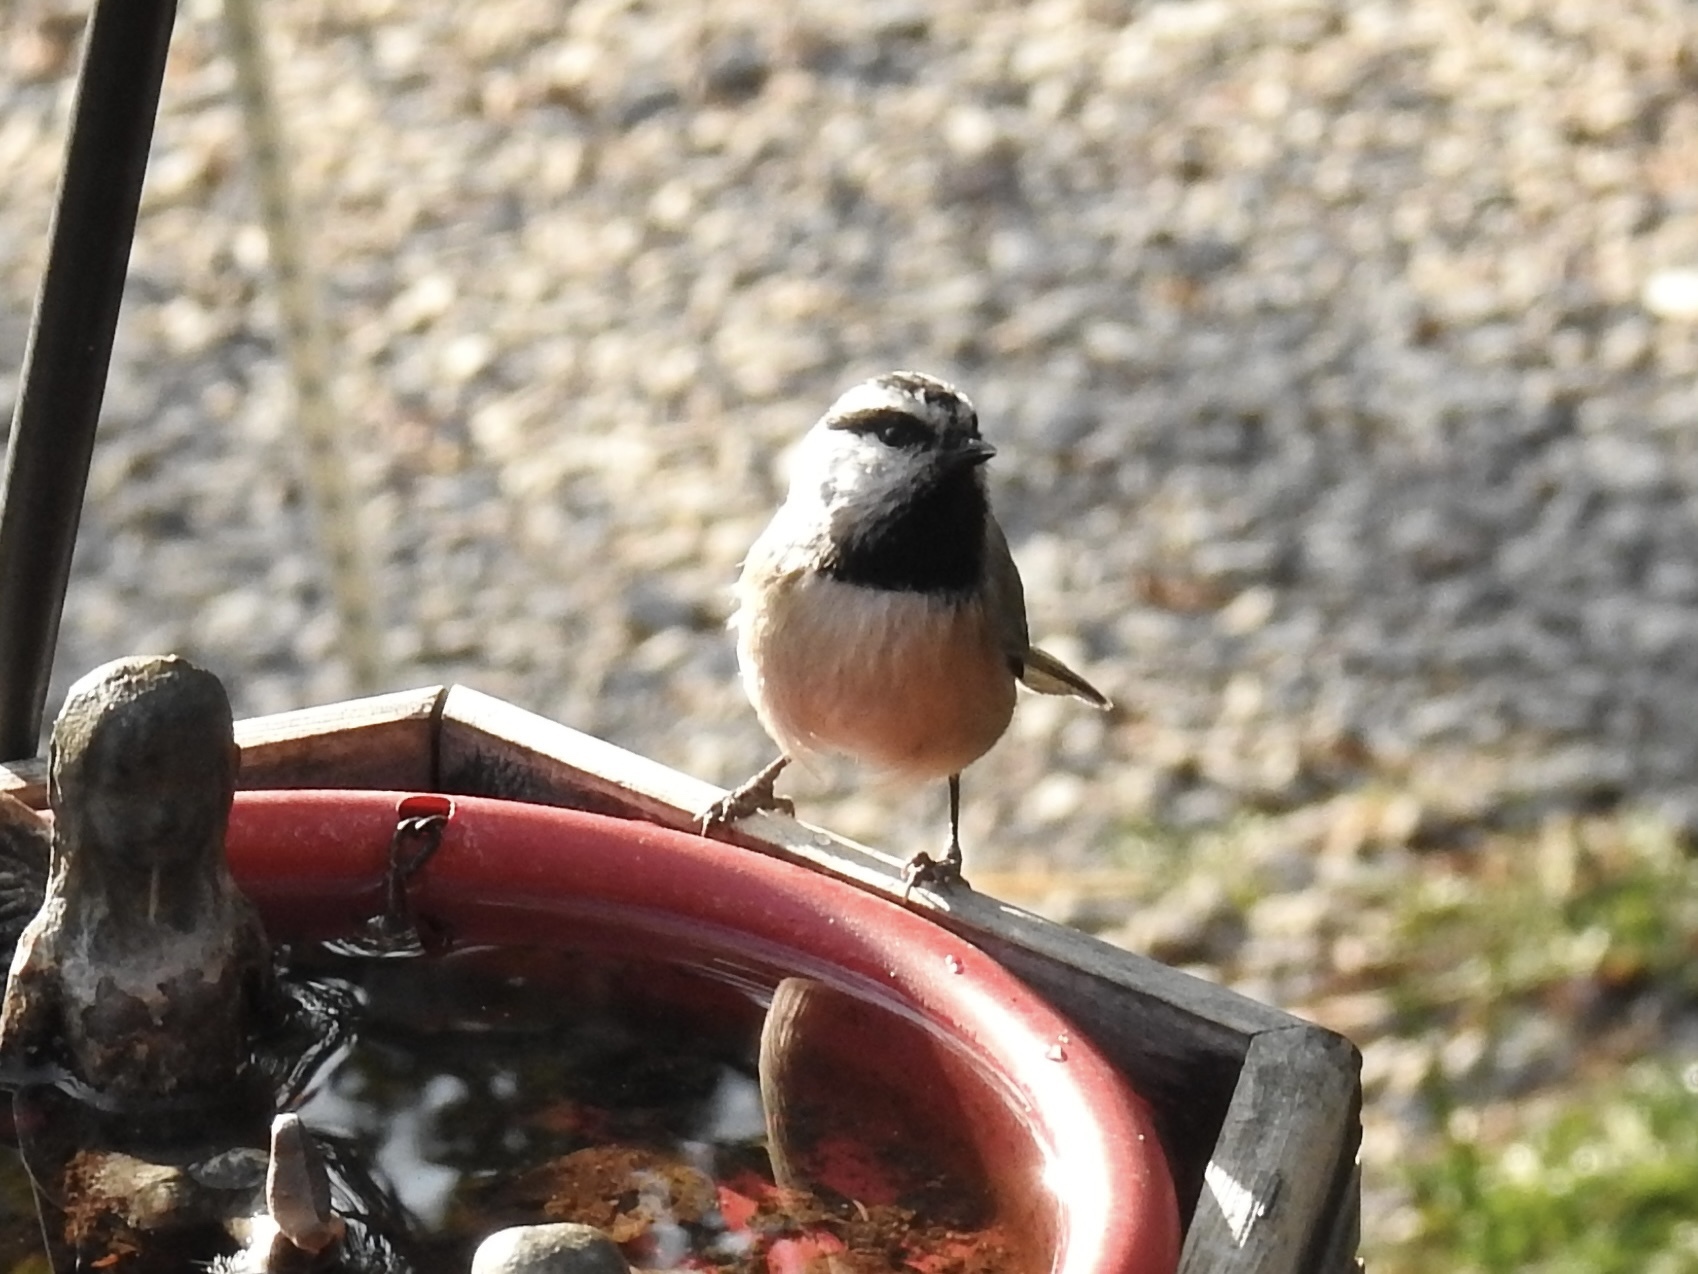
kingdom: Animalia
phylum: Chordata
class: Aves
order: Passeriformes
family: Paridae
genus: Poecile
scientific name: Poecile gambeli
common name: Mountain chickadee
